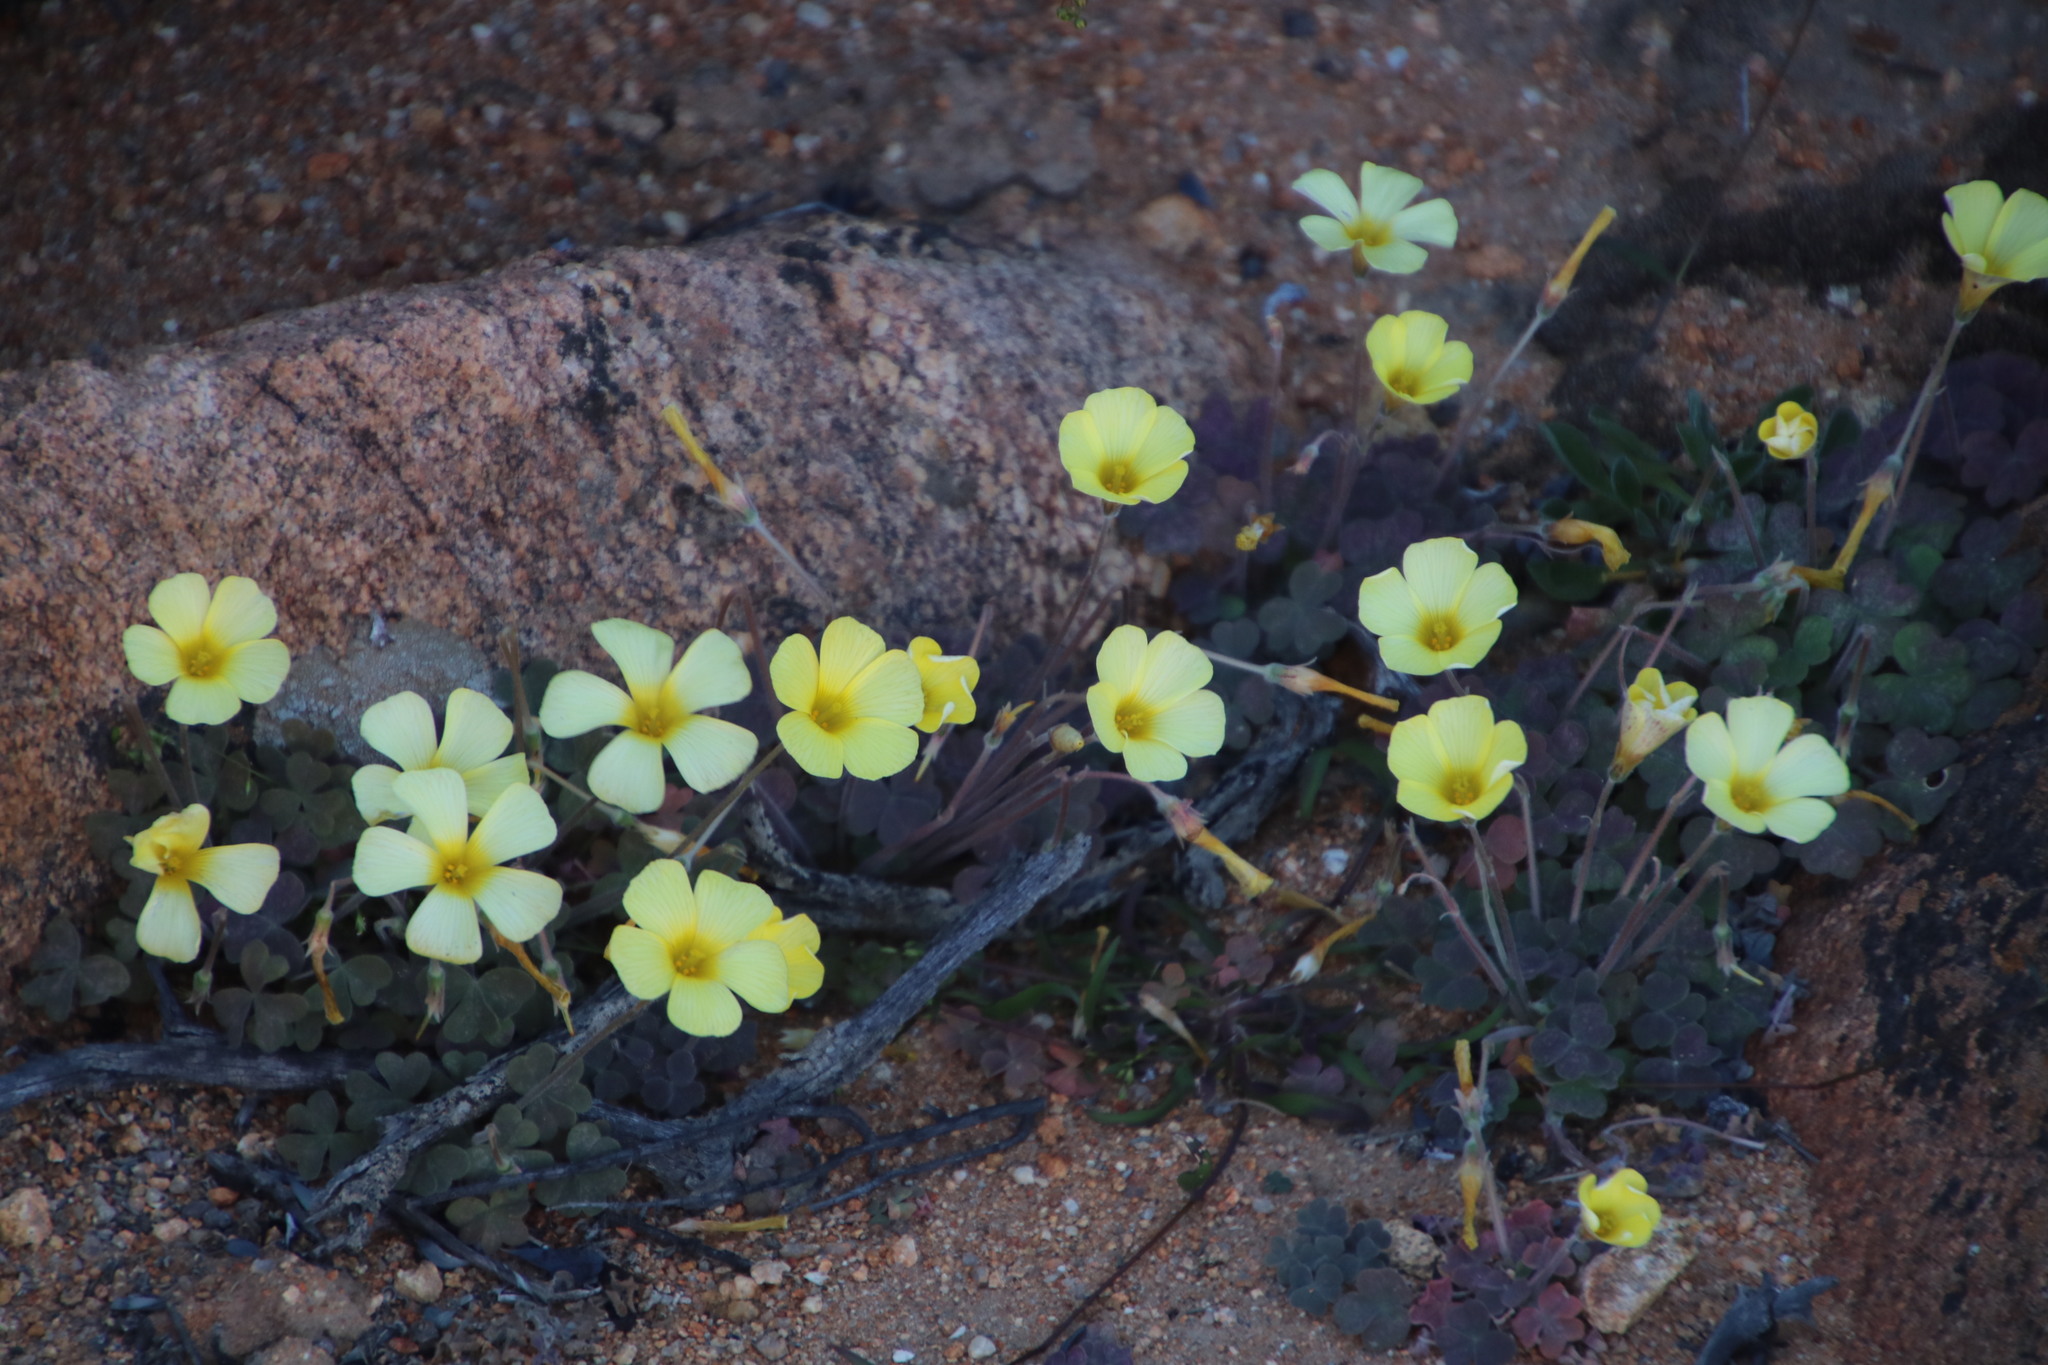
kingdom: Plantae
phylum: Tracheophyta
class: Magnoliopsida
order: Oxalidales
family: Oxalidaceae
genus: Oxalis
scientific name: Oxalis obtusa
